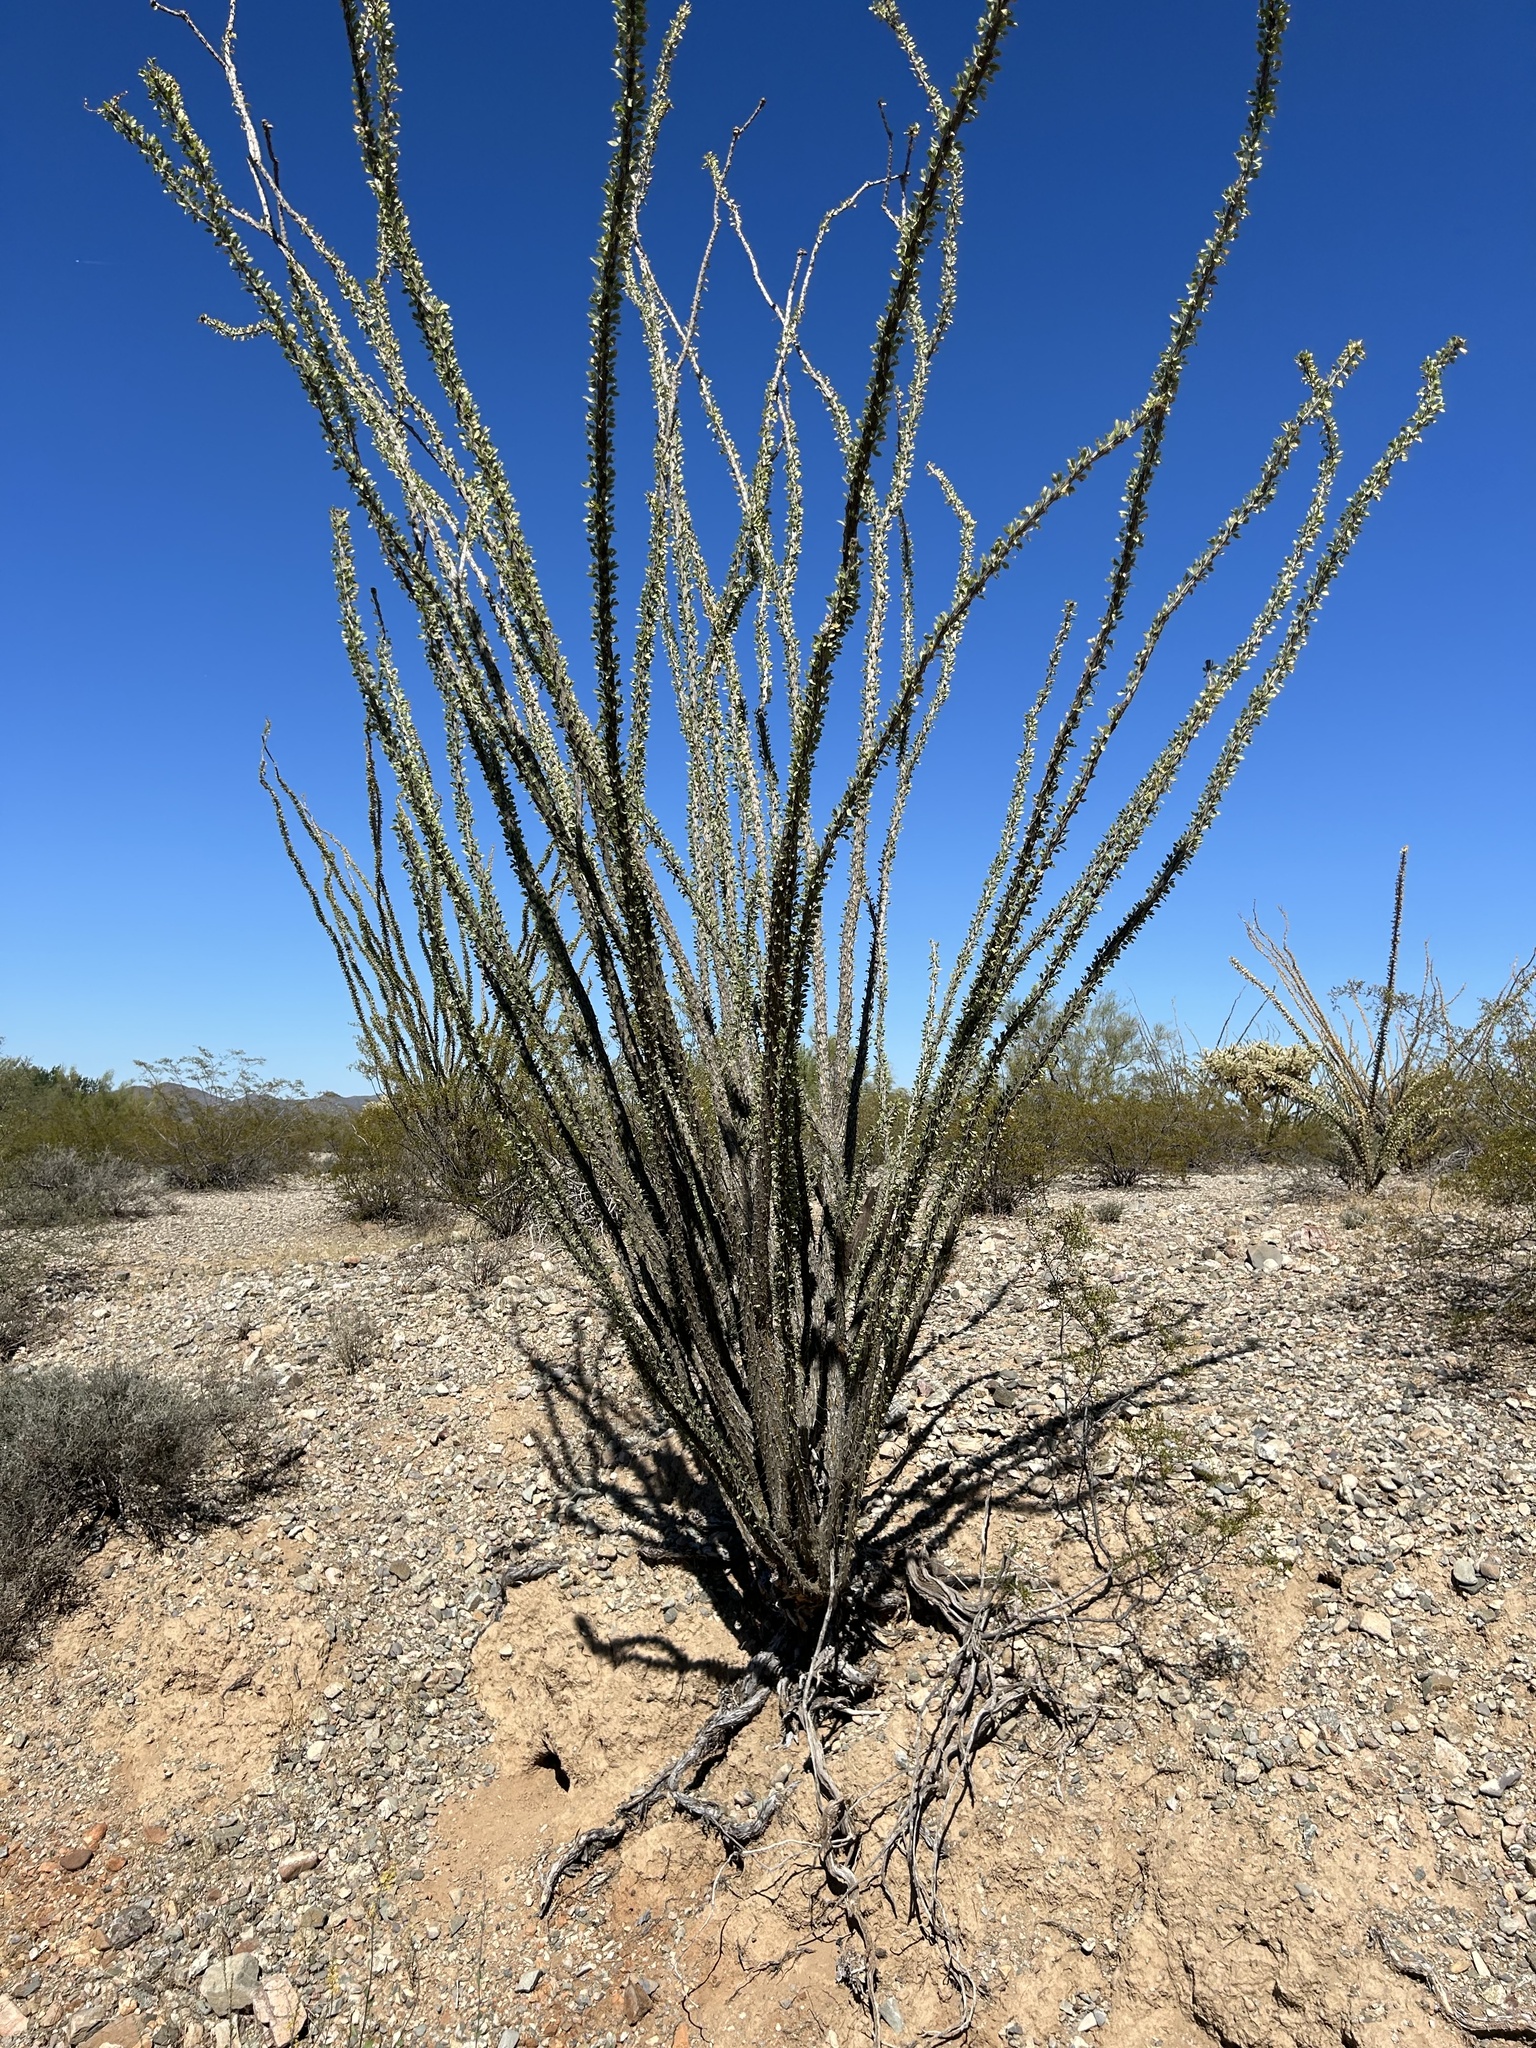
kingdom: Plantae
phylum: Tracheophyta
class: Magnoliopsida
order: Ericales
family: Fouquieriaceae
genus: Fouquieria
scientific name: Fouquieria splendens
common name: Vine-cactus
